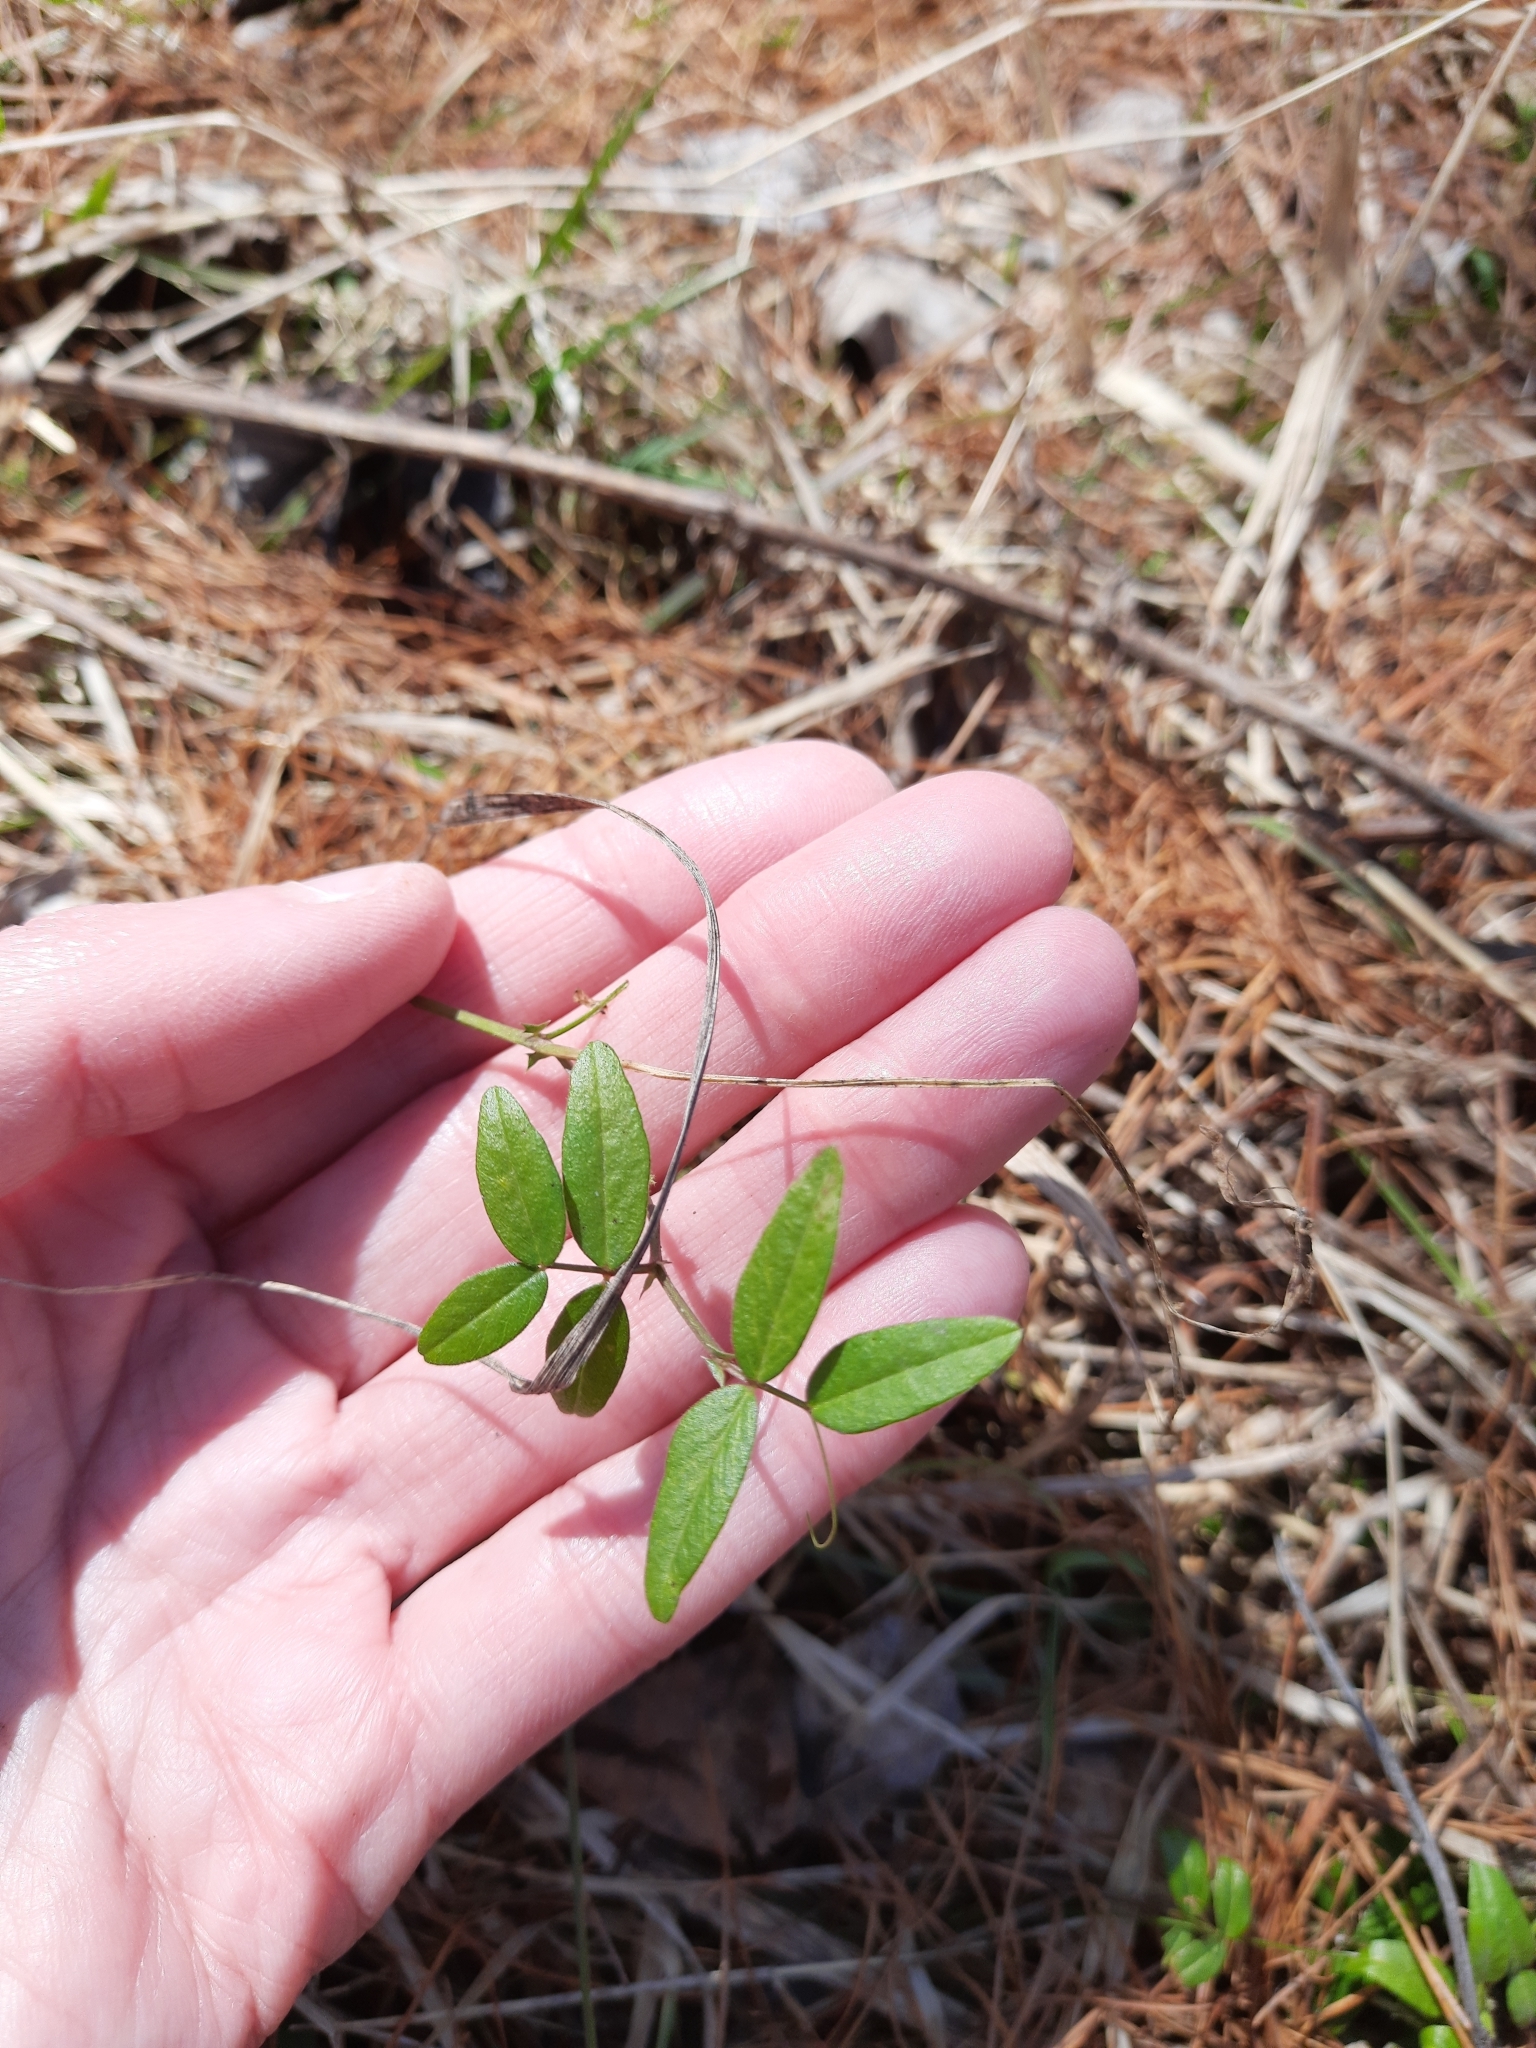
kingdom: Plantae
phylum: Tracheophyta
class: Magnoliopsida
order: Fabales
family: Fabaceae
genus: Vicia
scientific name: Vicia sepium
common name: Bush vetch
